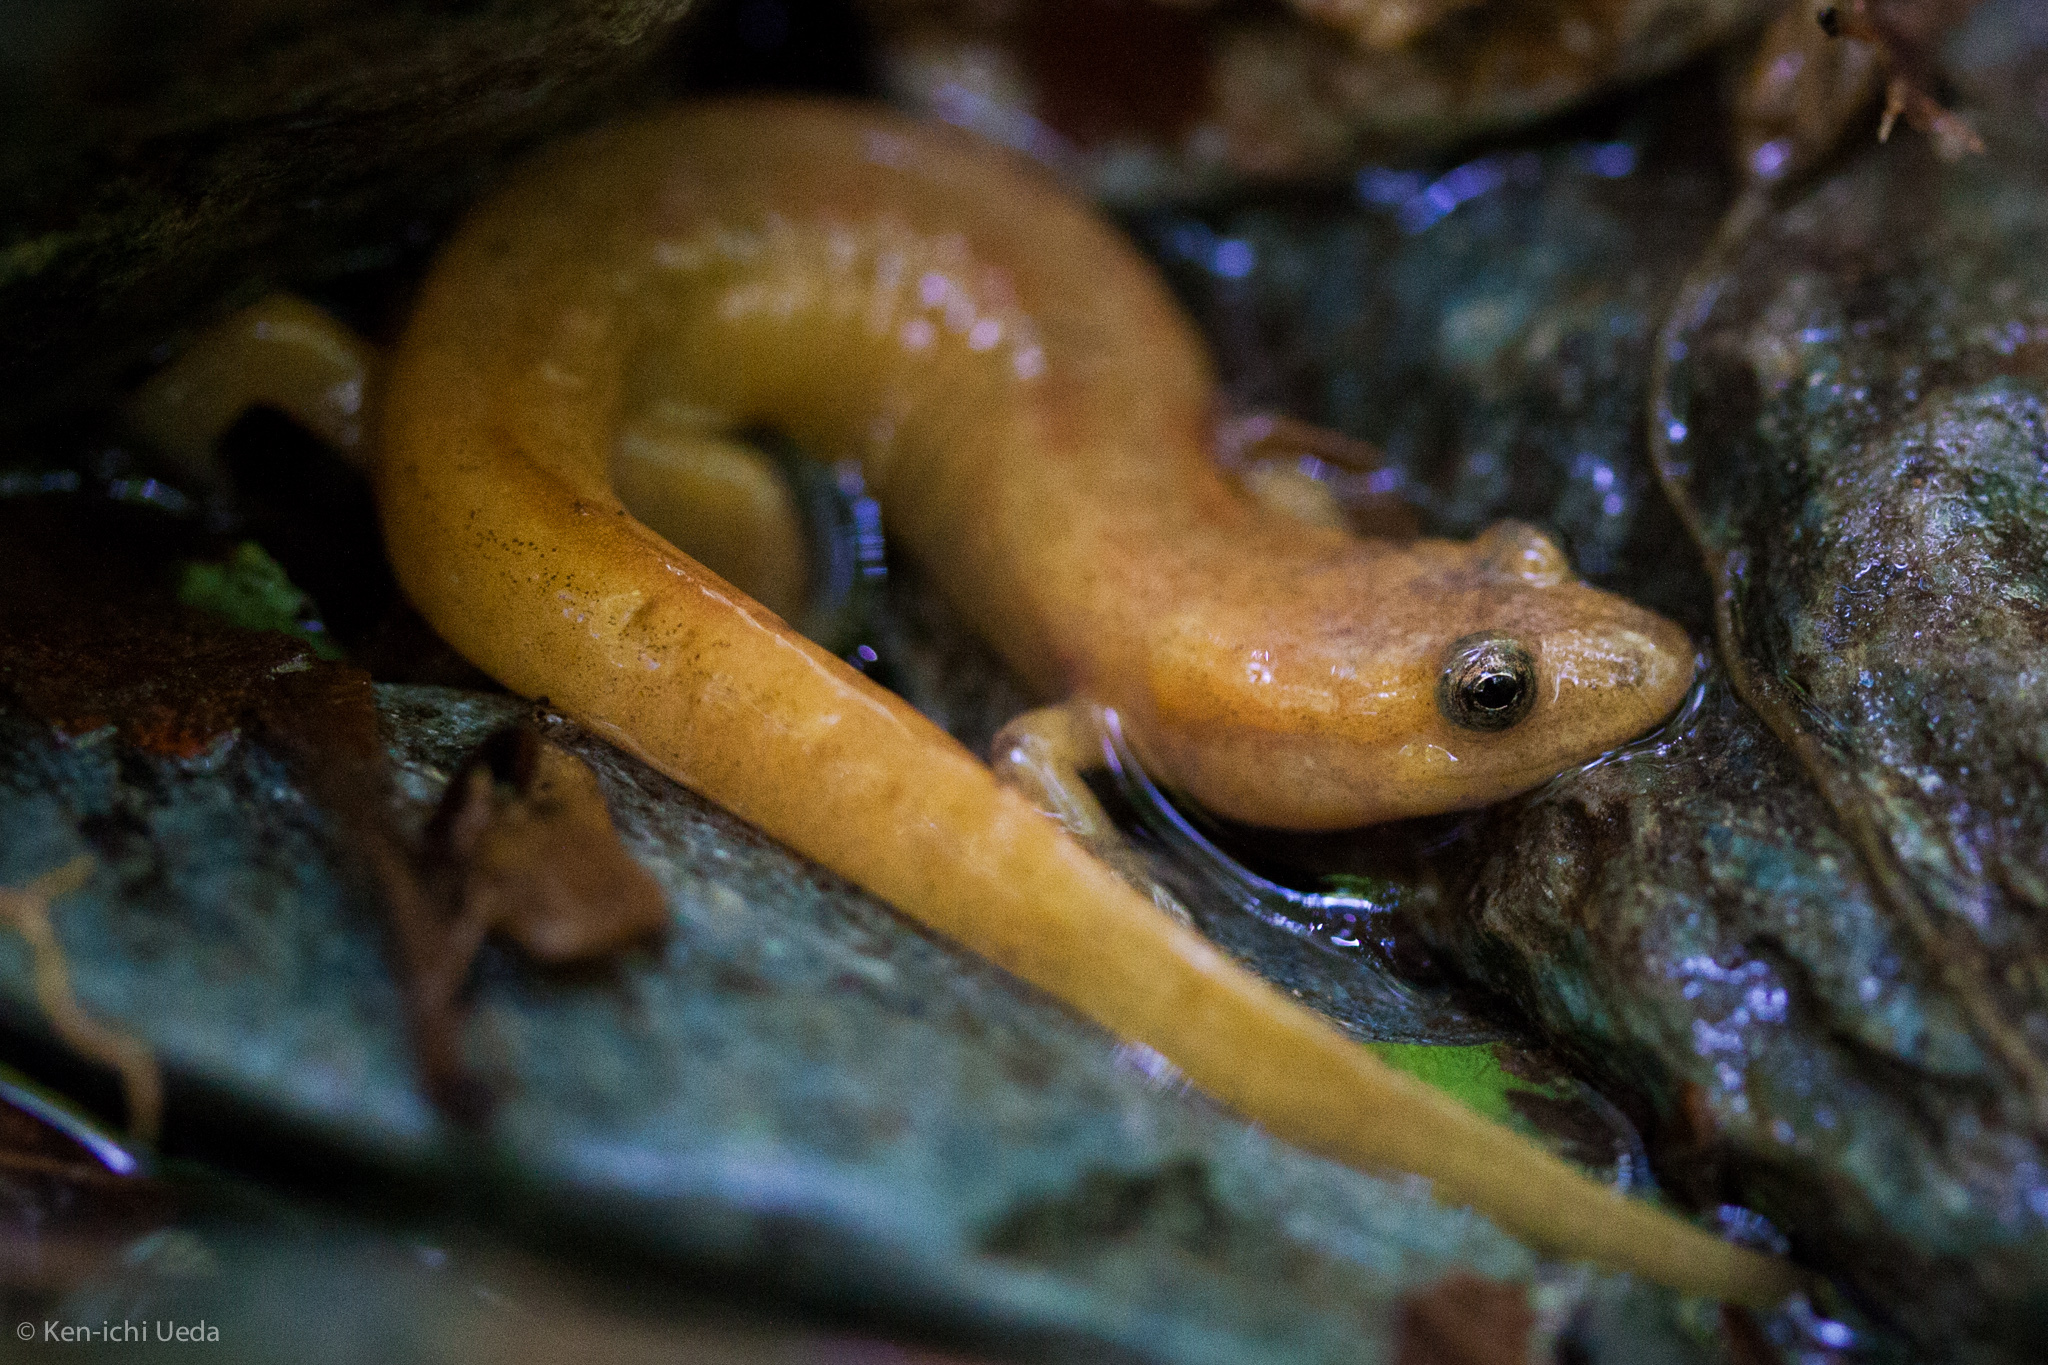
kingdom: Animalia
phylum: Chordata
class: Amphibia
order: Caudata
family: Plethodontidae
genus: Desmognathus
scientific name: Desmognathus fuscus
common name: Northern dusky salamander
